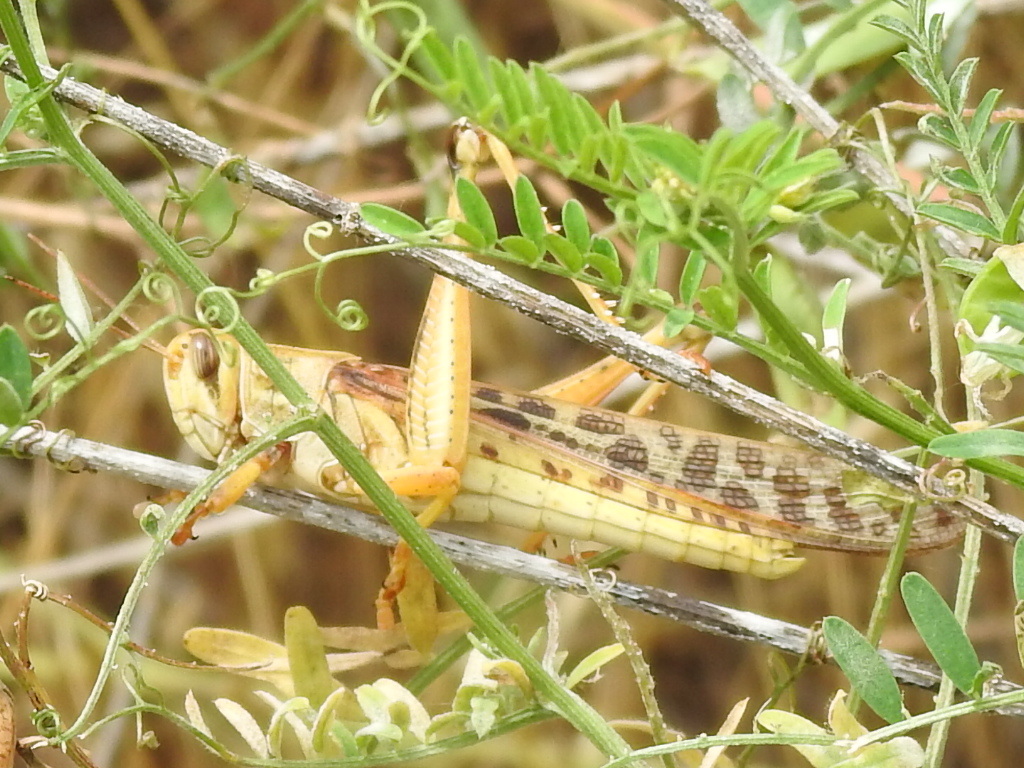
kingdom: Animalia
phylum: Arthropoda
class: Insecta
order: Orthoptera
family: Acrididae
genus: Schistocerca
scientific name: Schistocerca americana
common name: American bird locust
